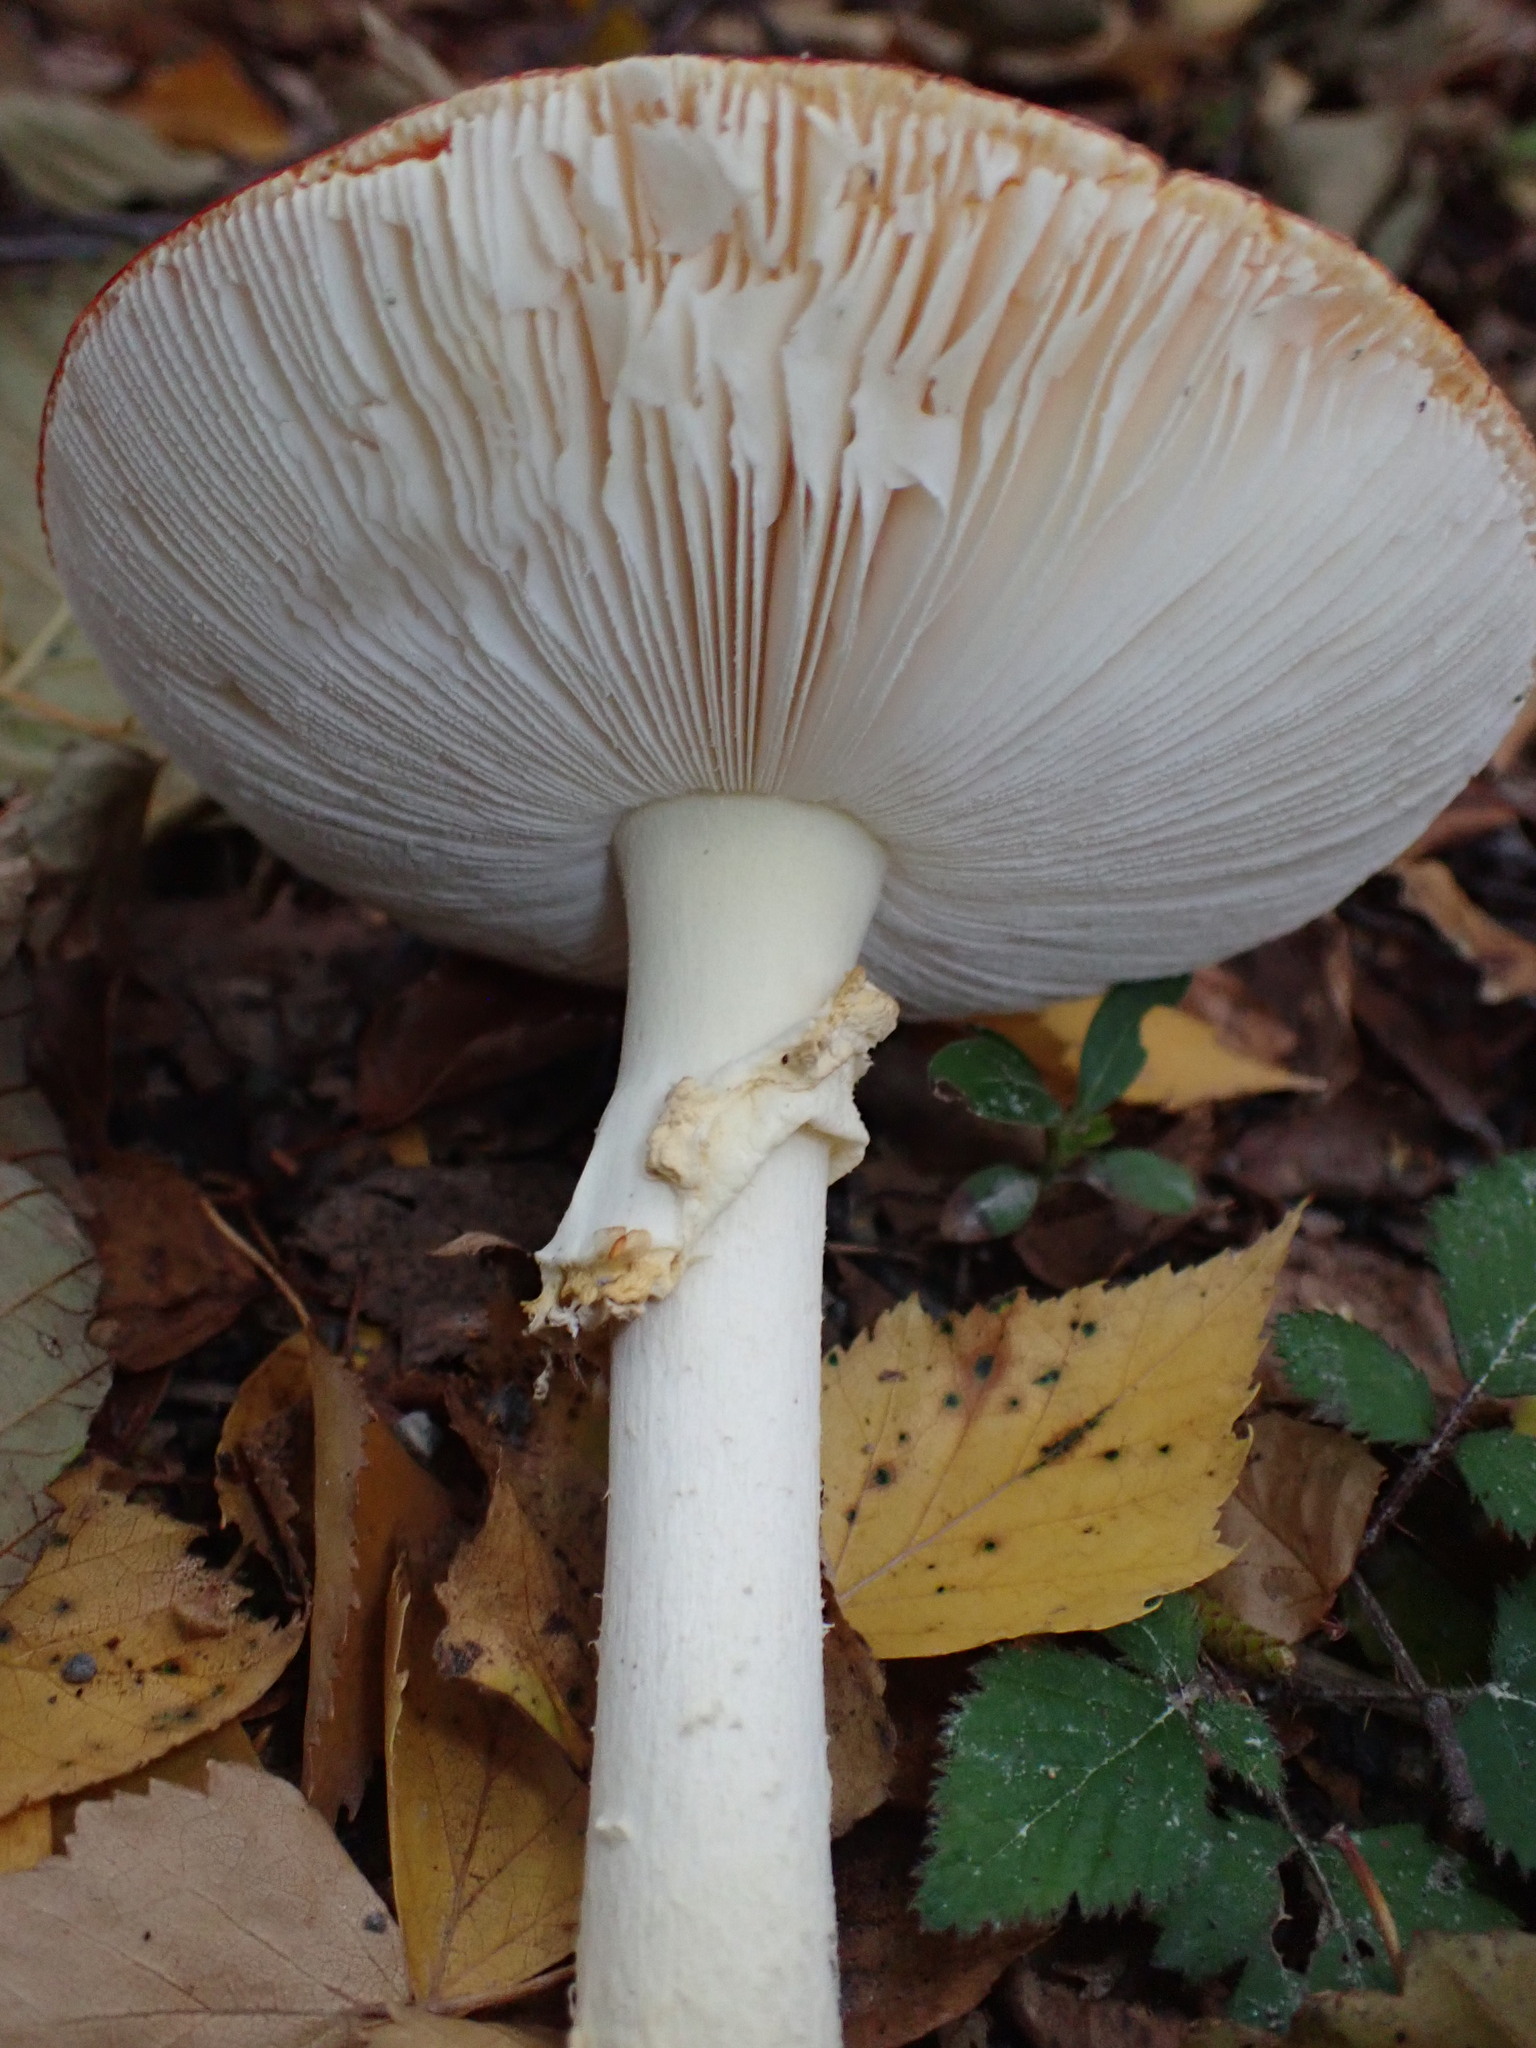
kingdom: Fungi
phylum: Basidiomycota
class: Agaricomycetes
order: Agaricales
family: Amanitaceae
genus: Amanita
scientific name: Amanita muscaria
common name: Fly agaric
